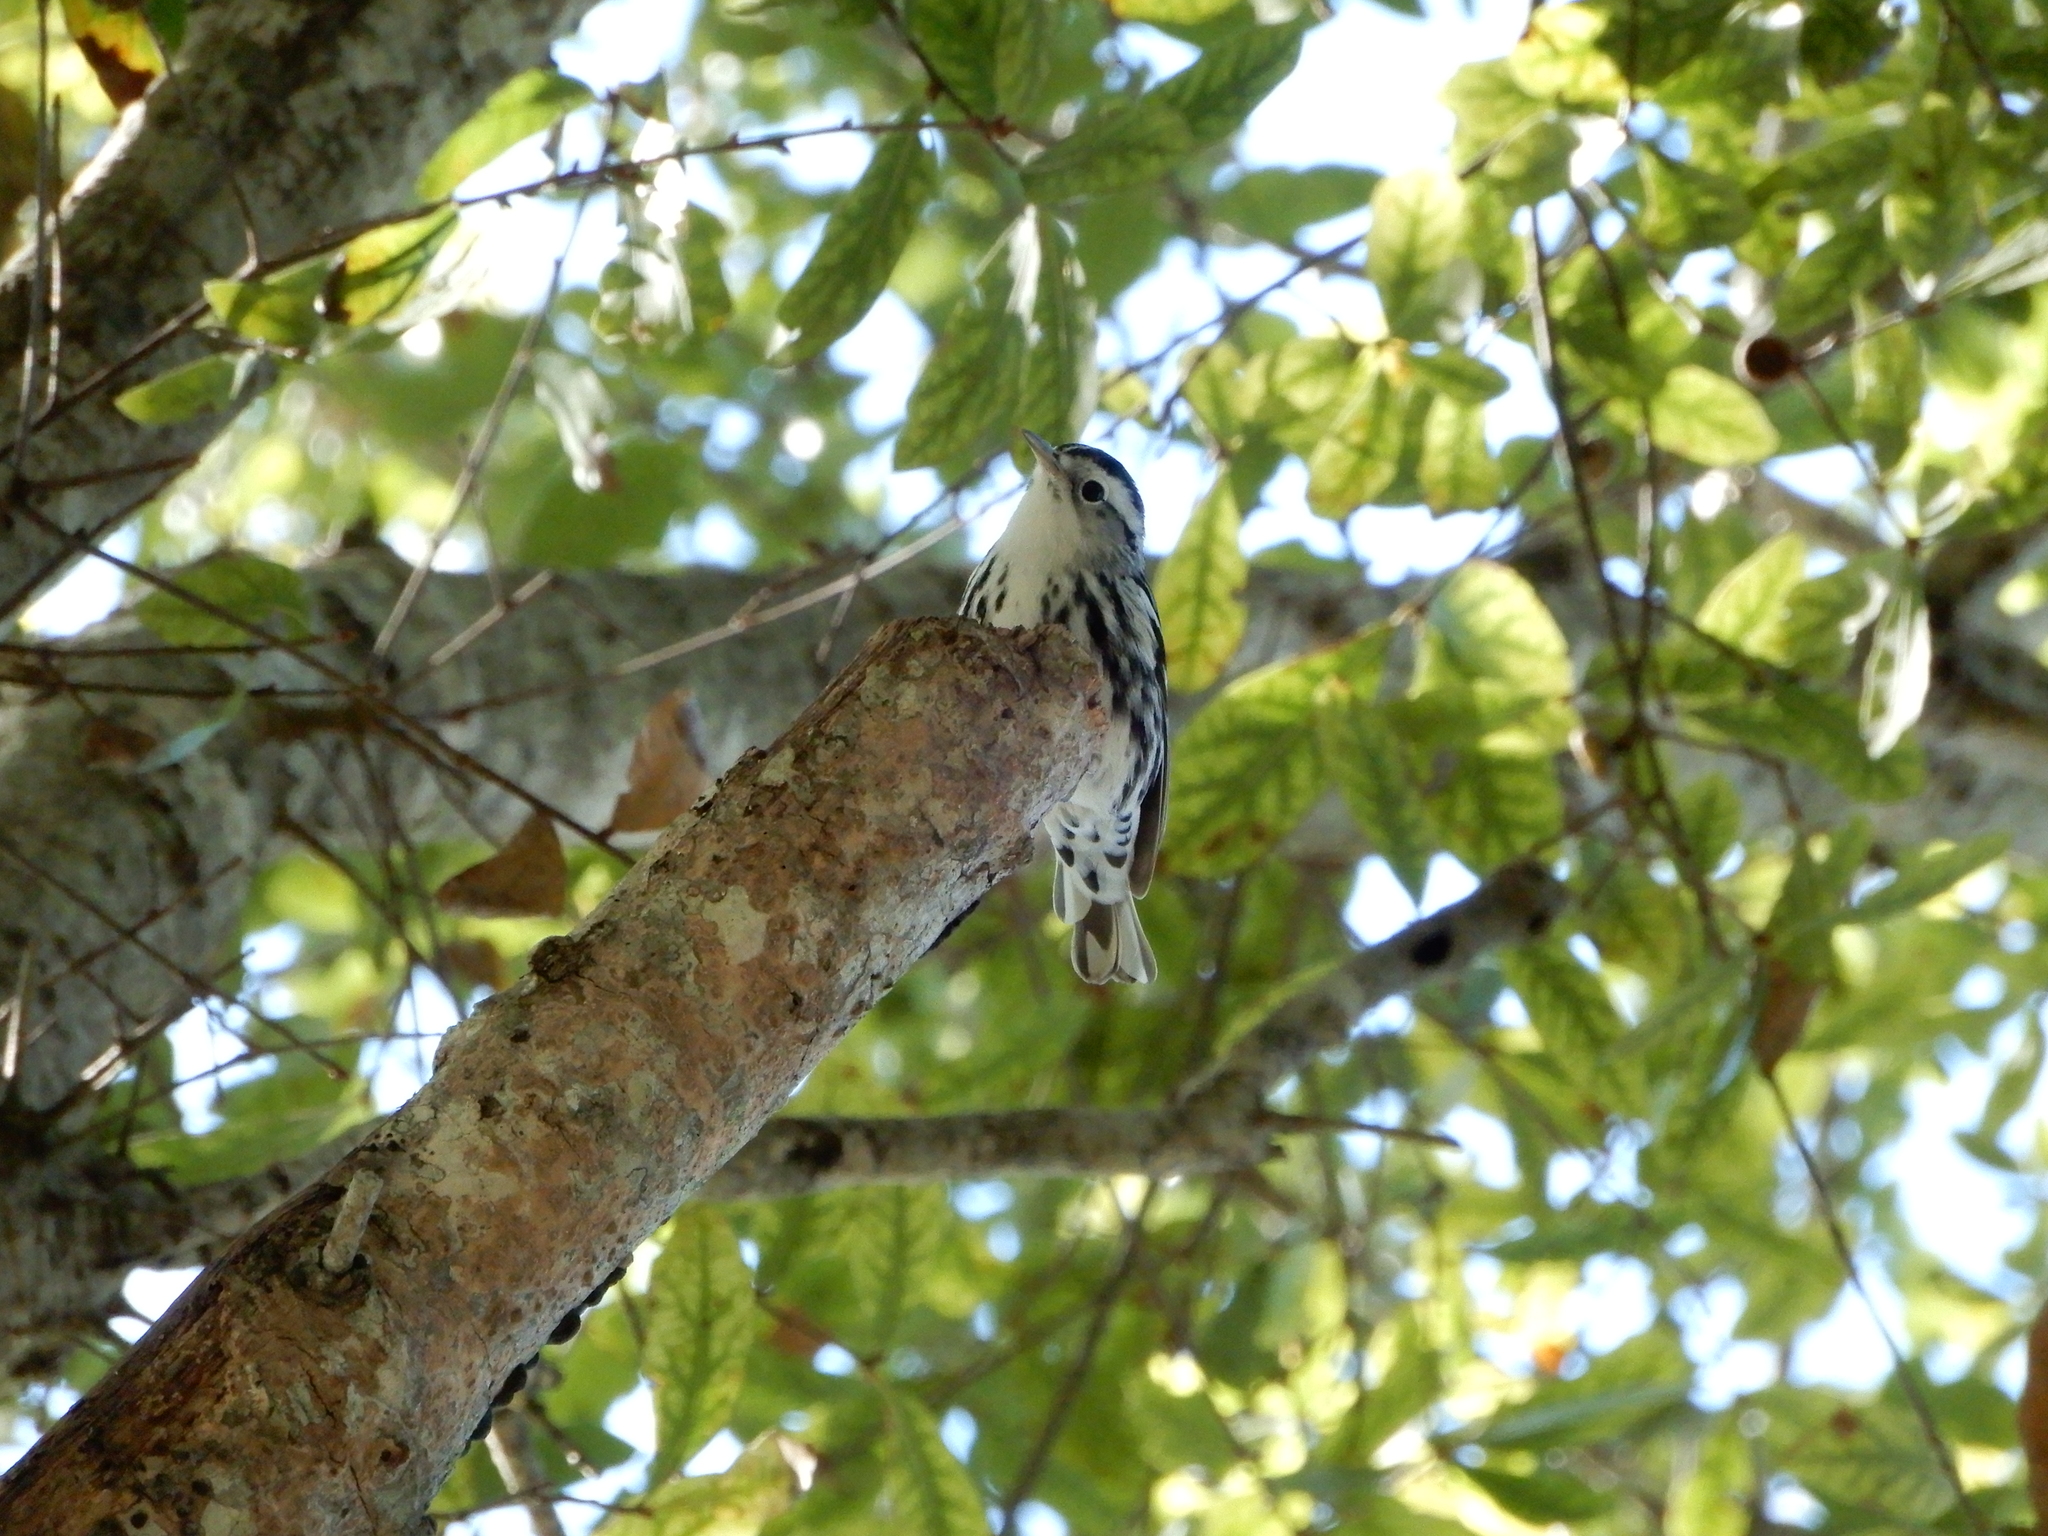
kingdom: Animalia
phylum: Chordata
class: Aves
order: Passeriformes
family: Parulidae
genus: Mniotilta
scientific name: Mniotilta varia
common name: Black-and-white warbler
